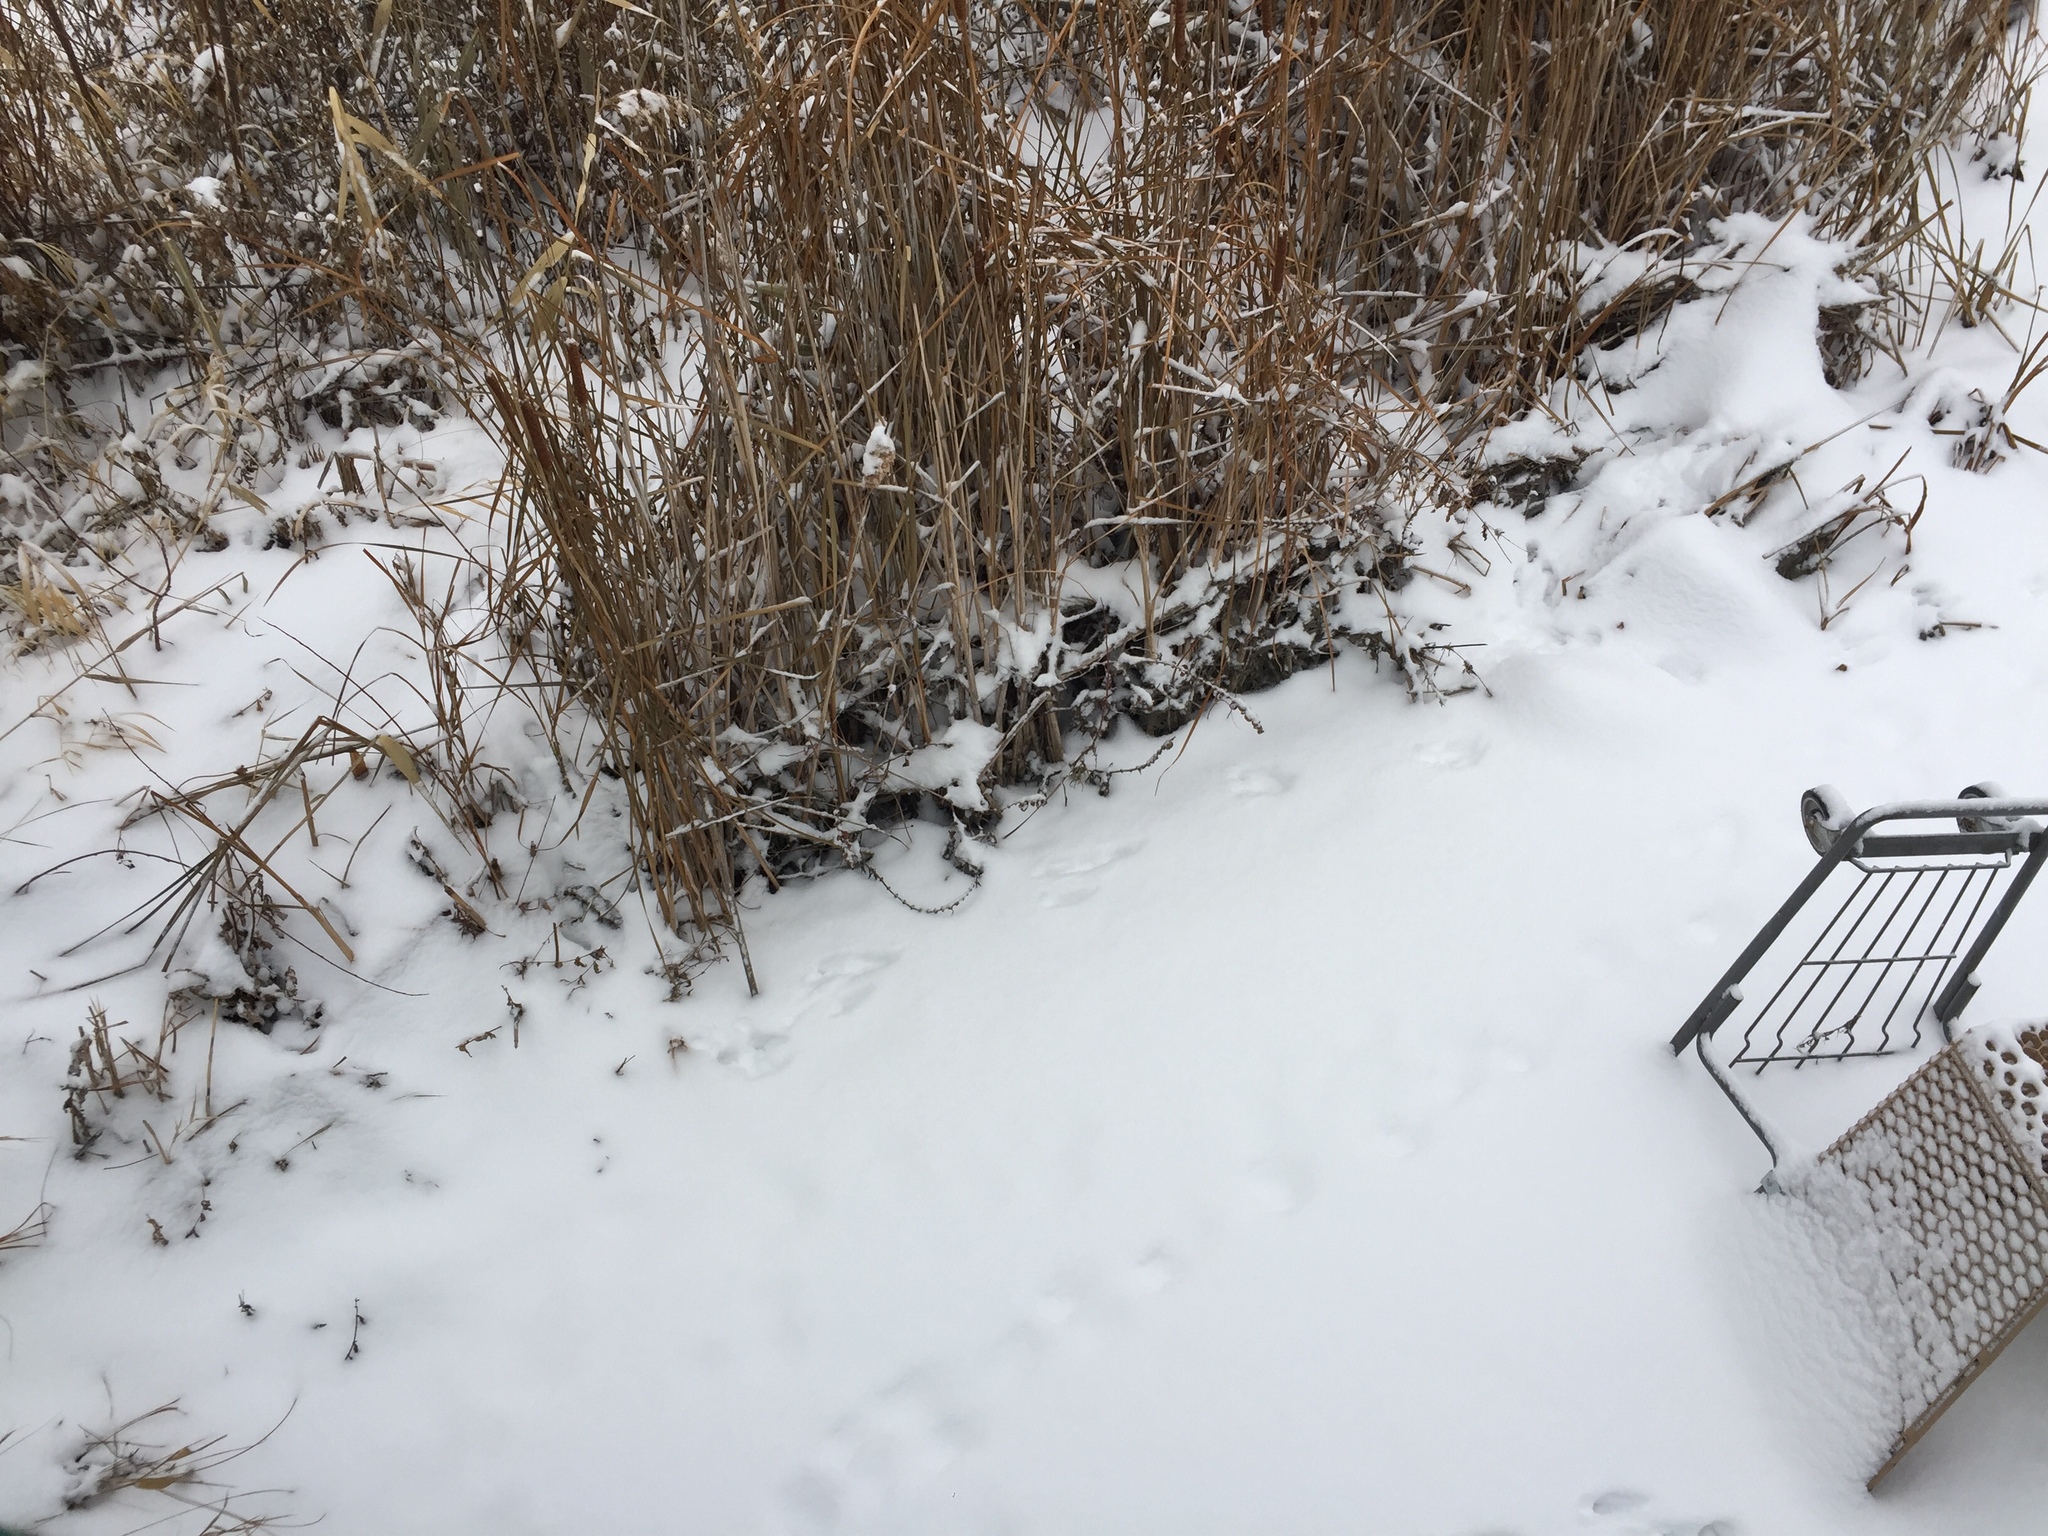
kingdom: Animalia
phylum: Chordata
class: Mammalia
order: Lagomorpha
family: Leporidae
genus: Sylvilagus
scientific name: Sylvilagus floridanus
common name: Eastern cottontail
